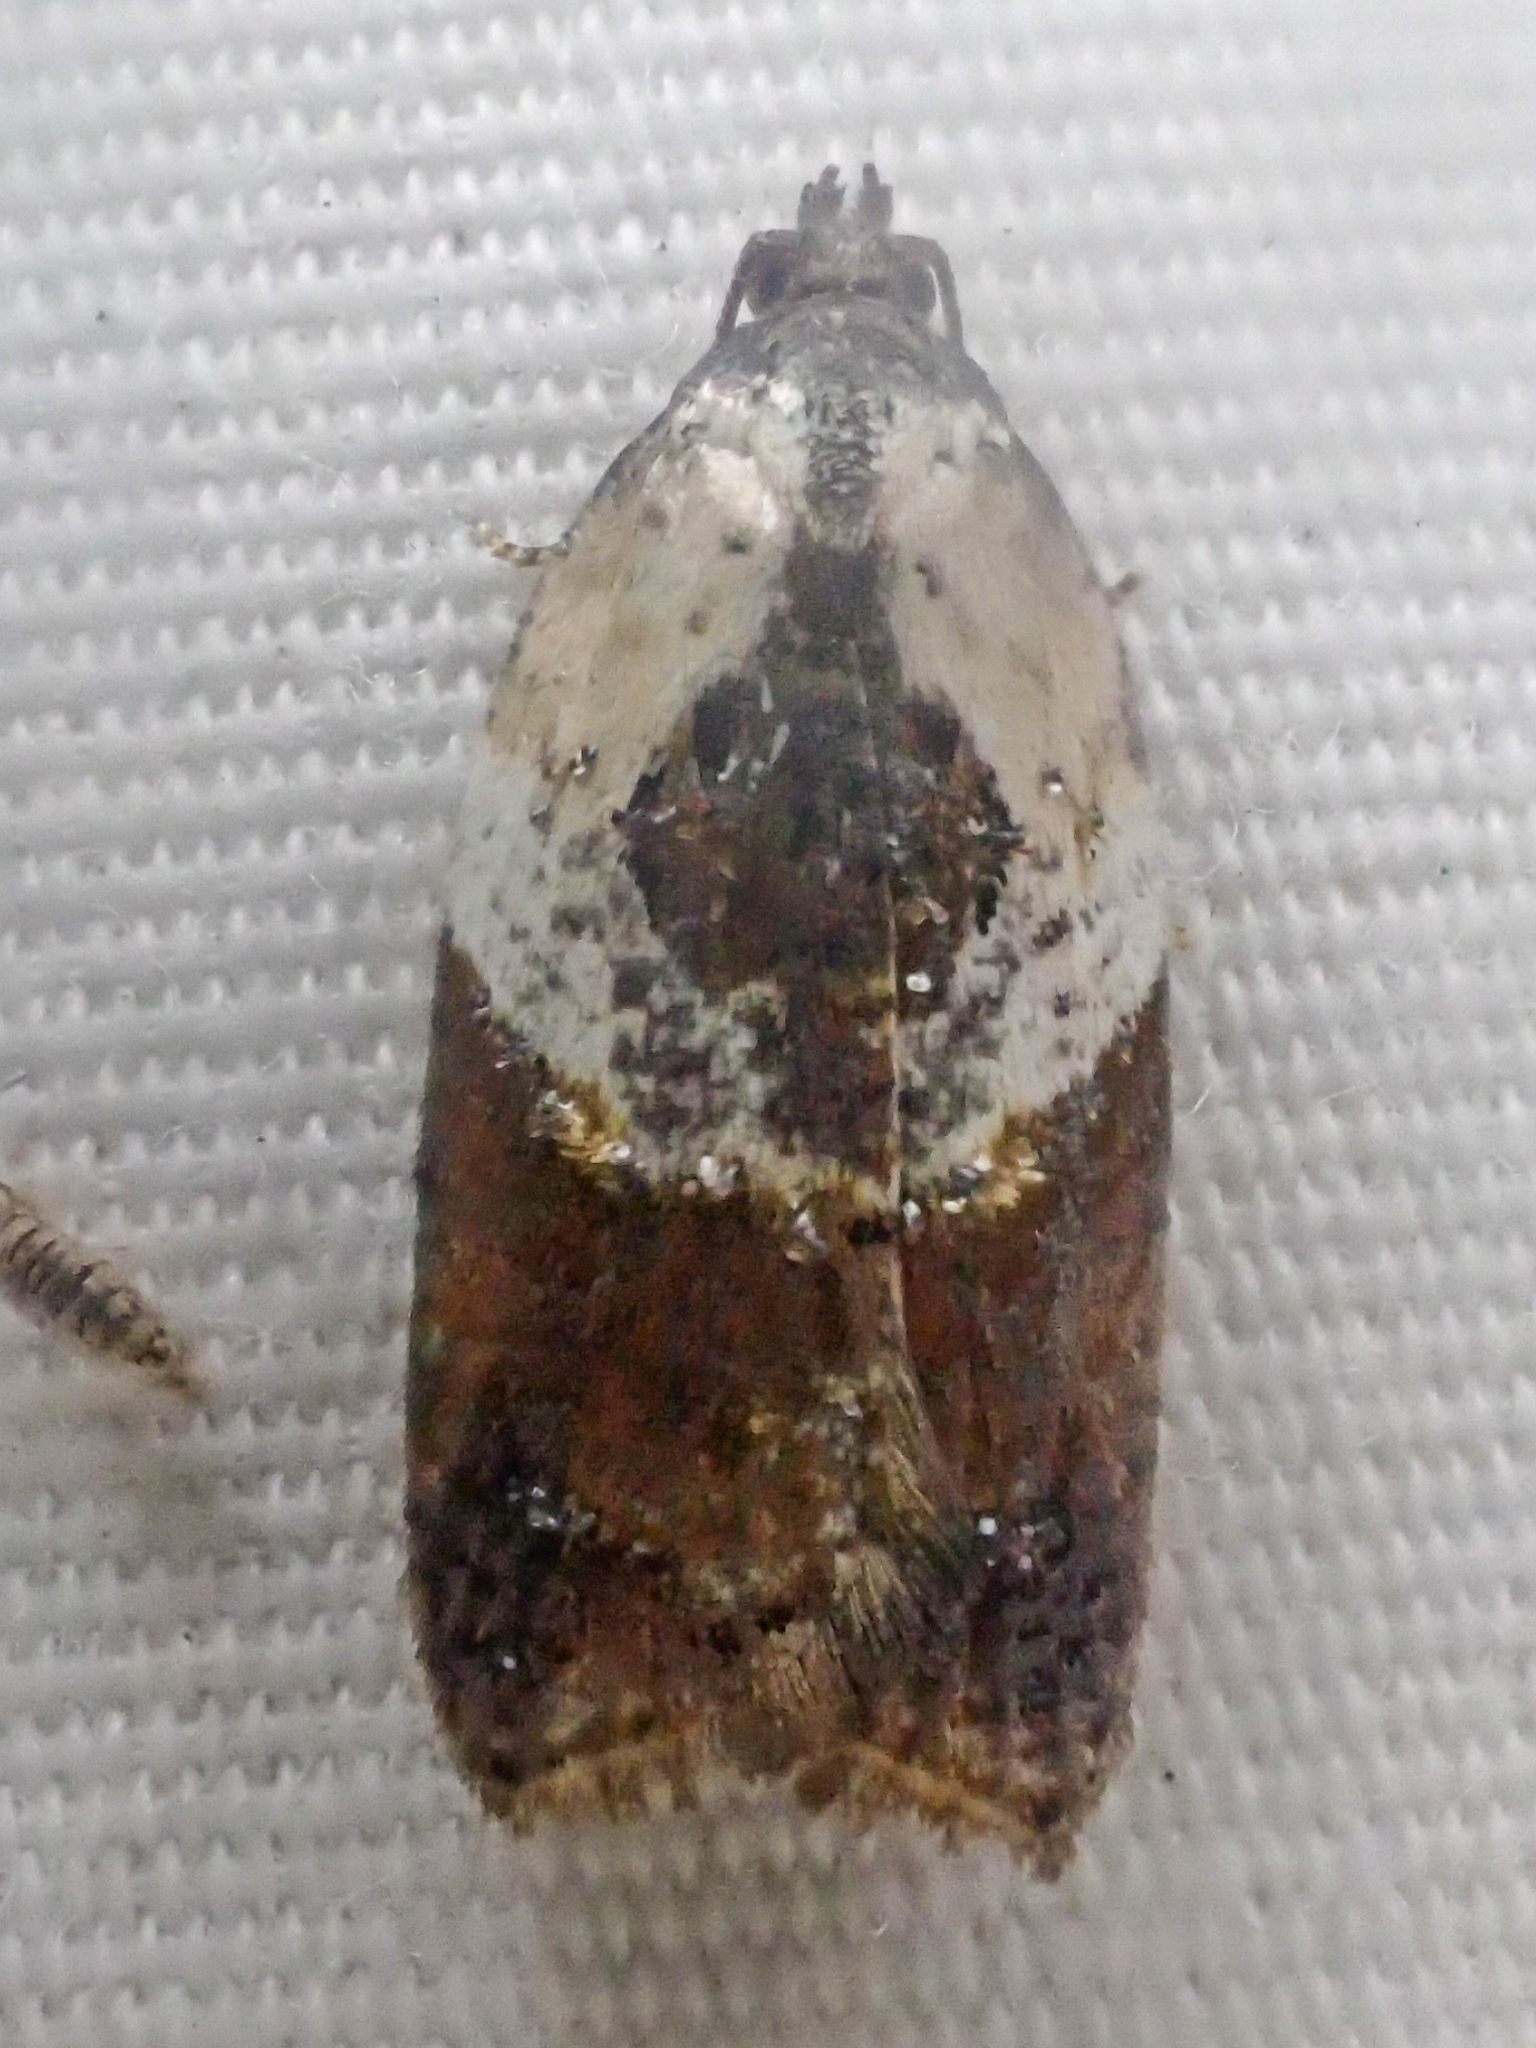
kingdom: Animalia
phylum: Arthropoda
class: Insecta
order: Lepidoptera
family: Tortricidae
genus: Acleris
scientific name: Acleris variegana
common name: Garden rose tortrix
